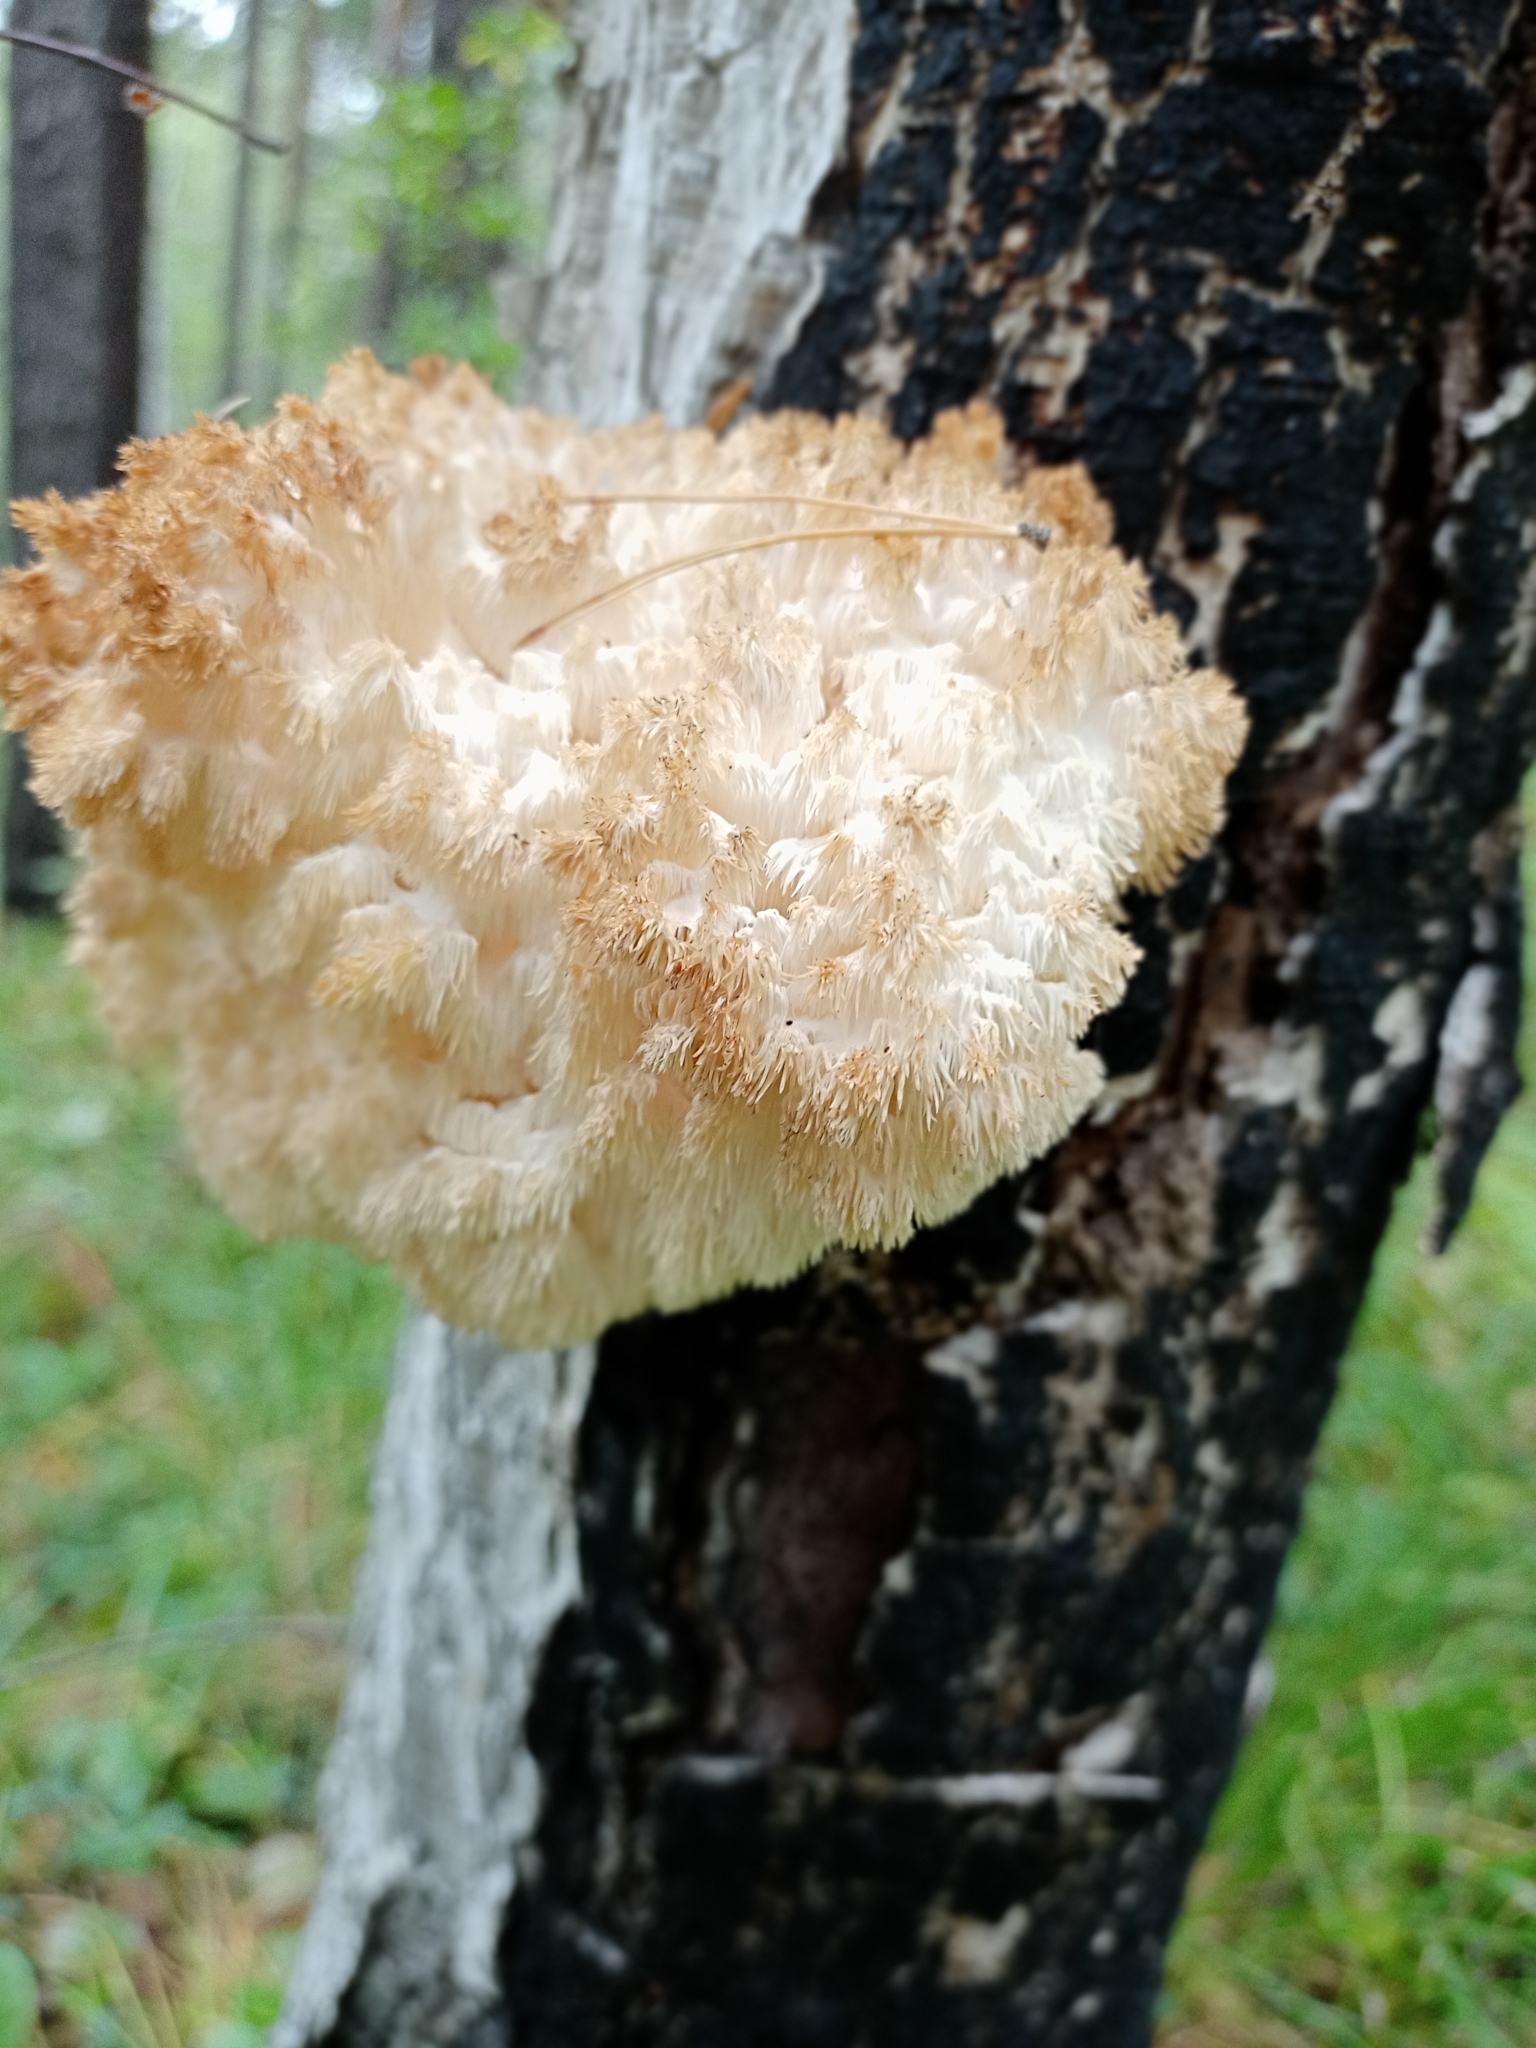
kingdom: Fungi
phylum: Basidiomycota
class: Agaricomycetes
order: Russulales
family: Hericiaceae
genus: Hericium
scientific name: Hericium coralloides
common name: Coral tooth
